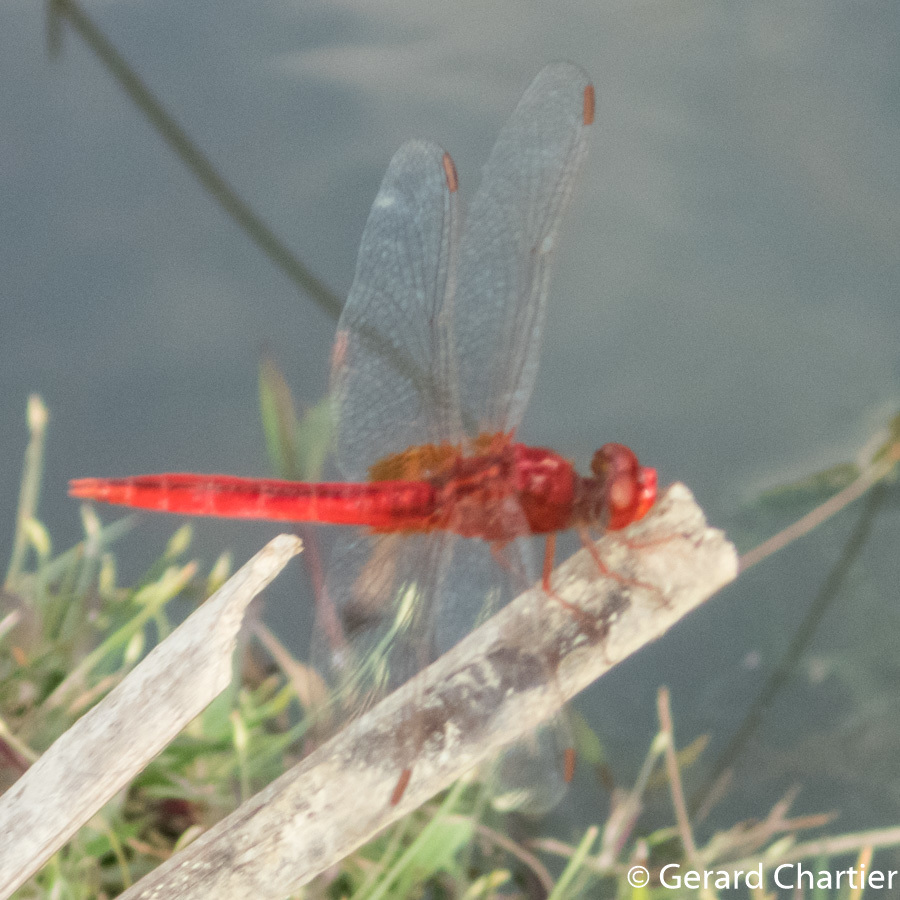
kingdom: Animalia
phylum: Arthropoda
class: Insecta
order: Odonata
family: Libellulidae
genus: Crocothemis
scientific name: Crocothemis servilia
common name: Scarlet skimmer
